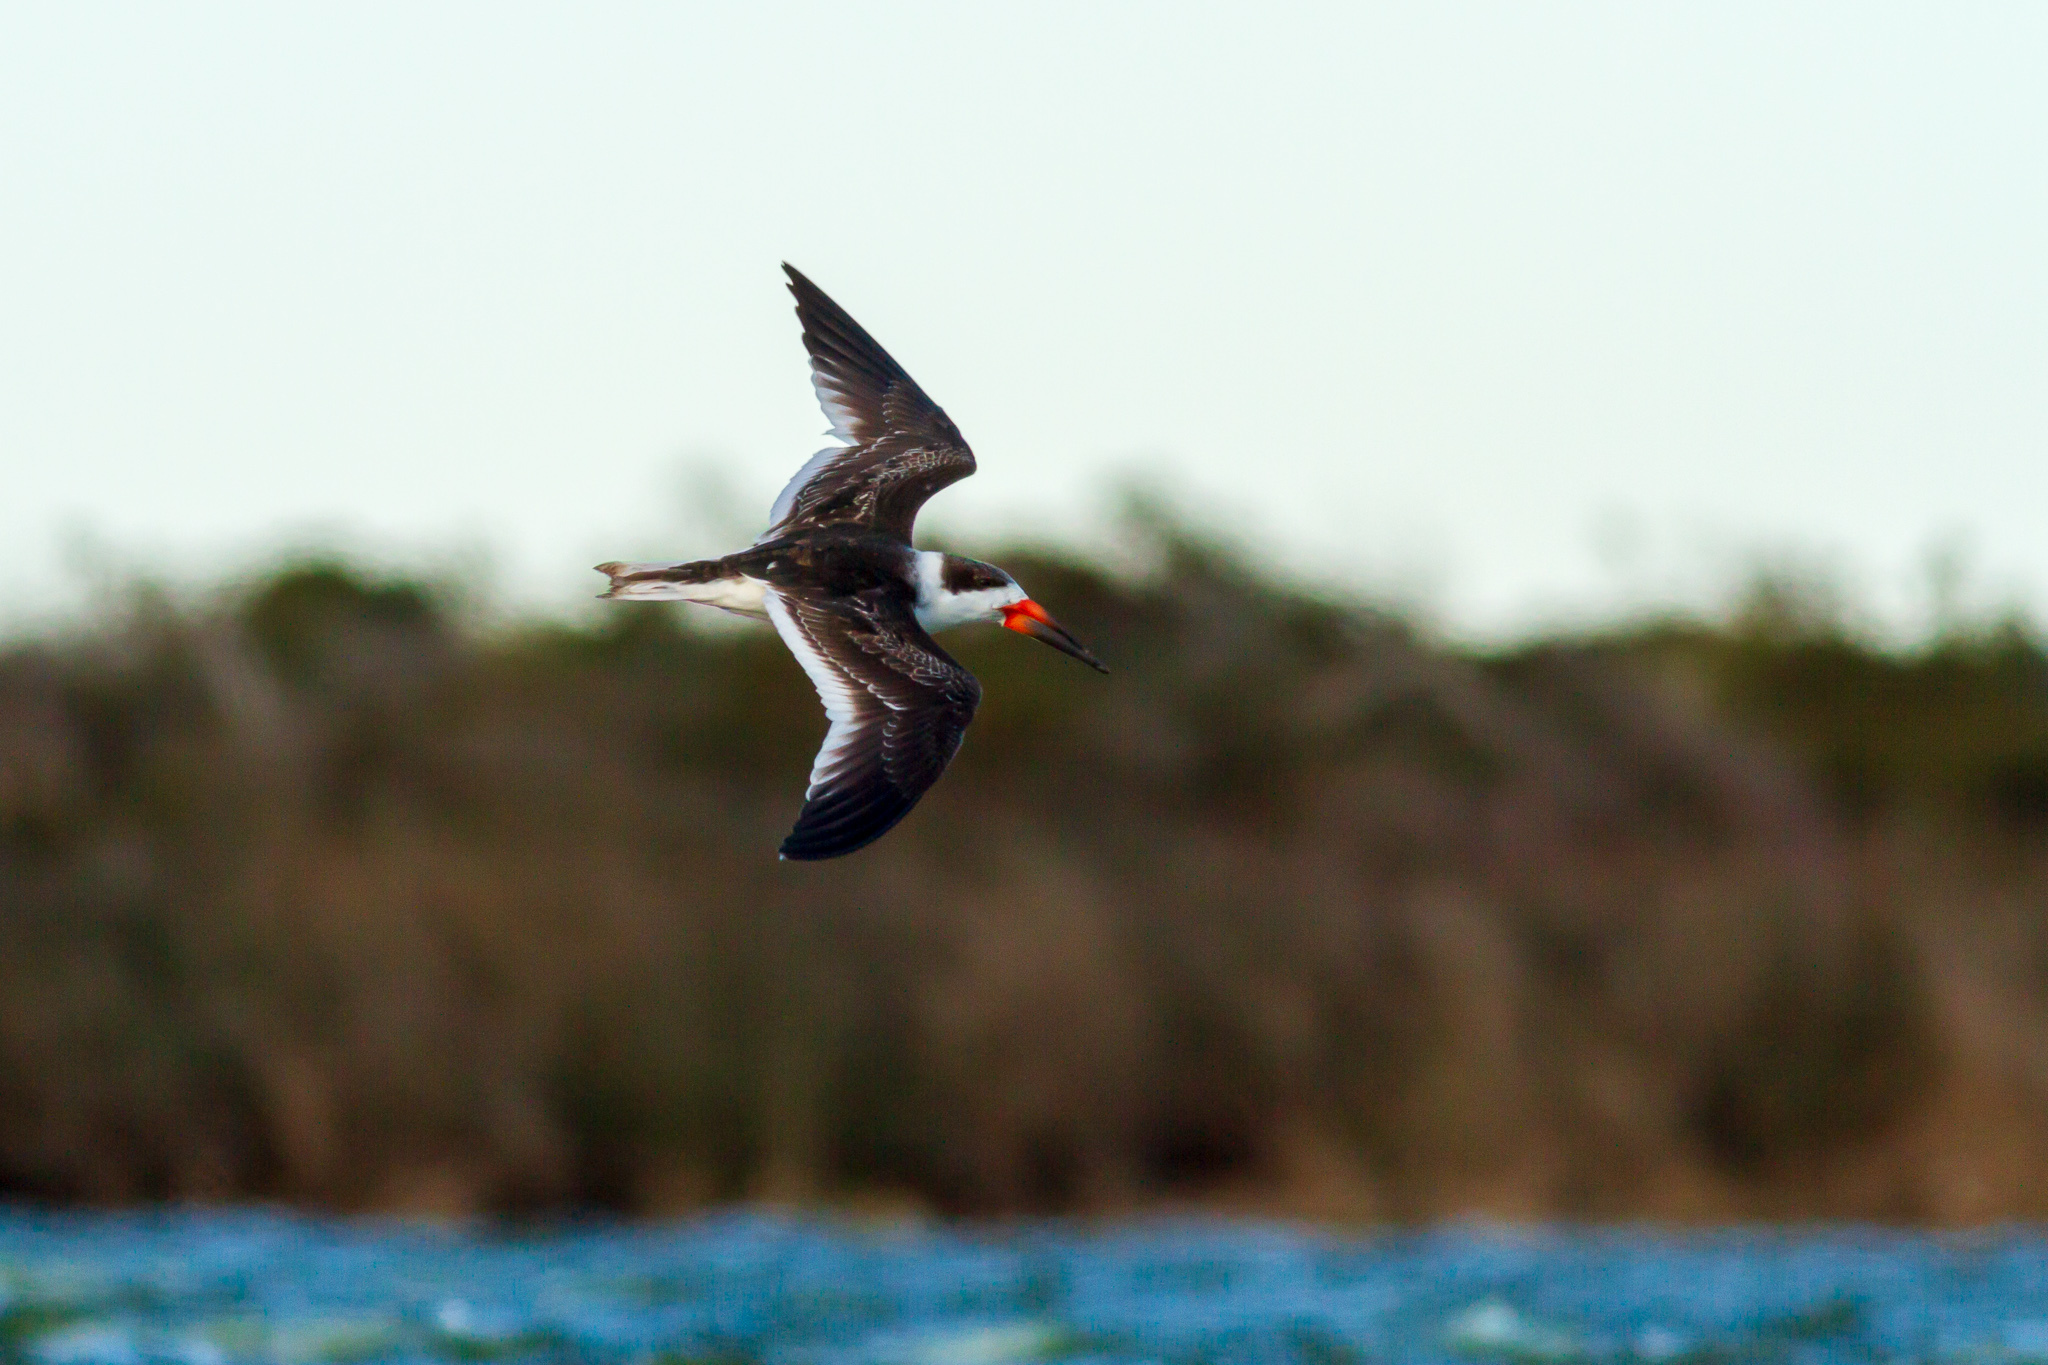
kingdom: Animalia
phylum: Chordata
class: Aves
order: Charadriiformes
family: Laridae
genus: Rynchops
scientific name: Rynchops niger
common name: Black skimmer
